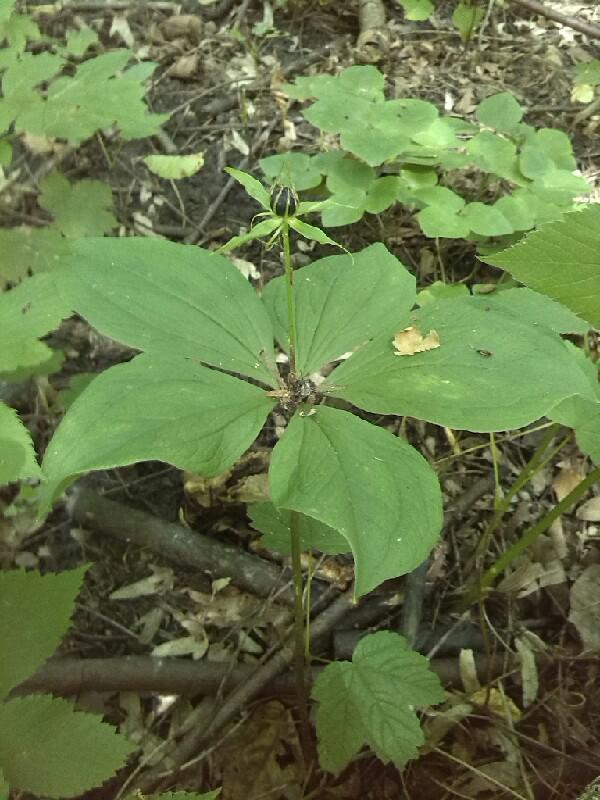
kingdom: Plantae
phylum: Tracheophyta
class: Liliopsida
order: Liliales
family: Melanthiaceae
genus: Paris
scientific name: Paris quadrifolia
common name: Herb-paris
